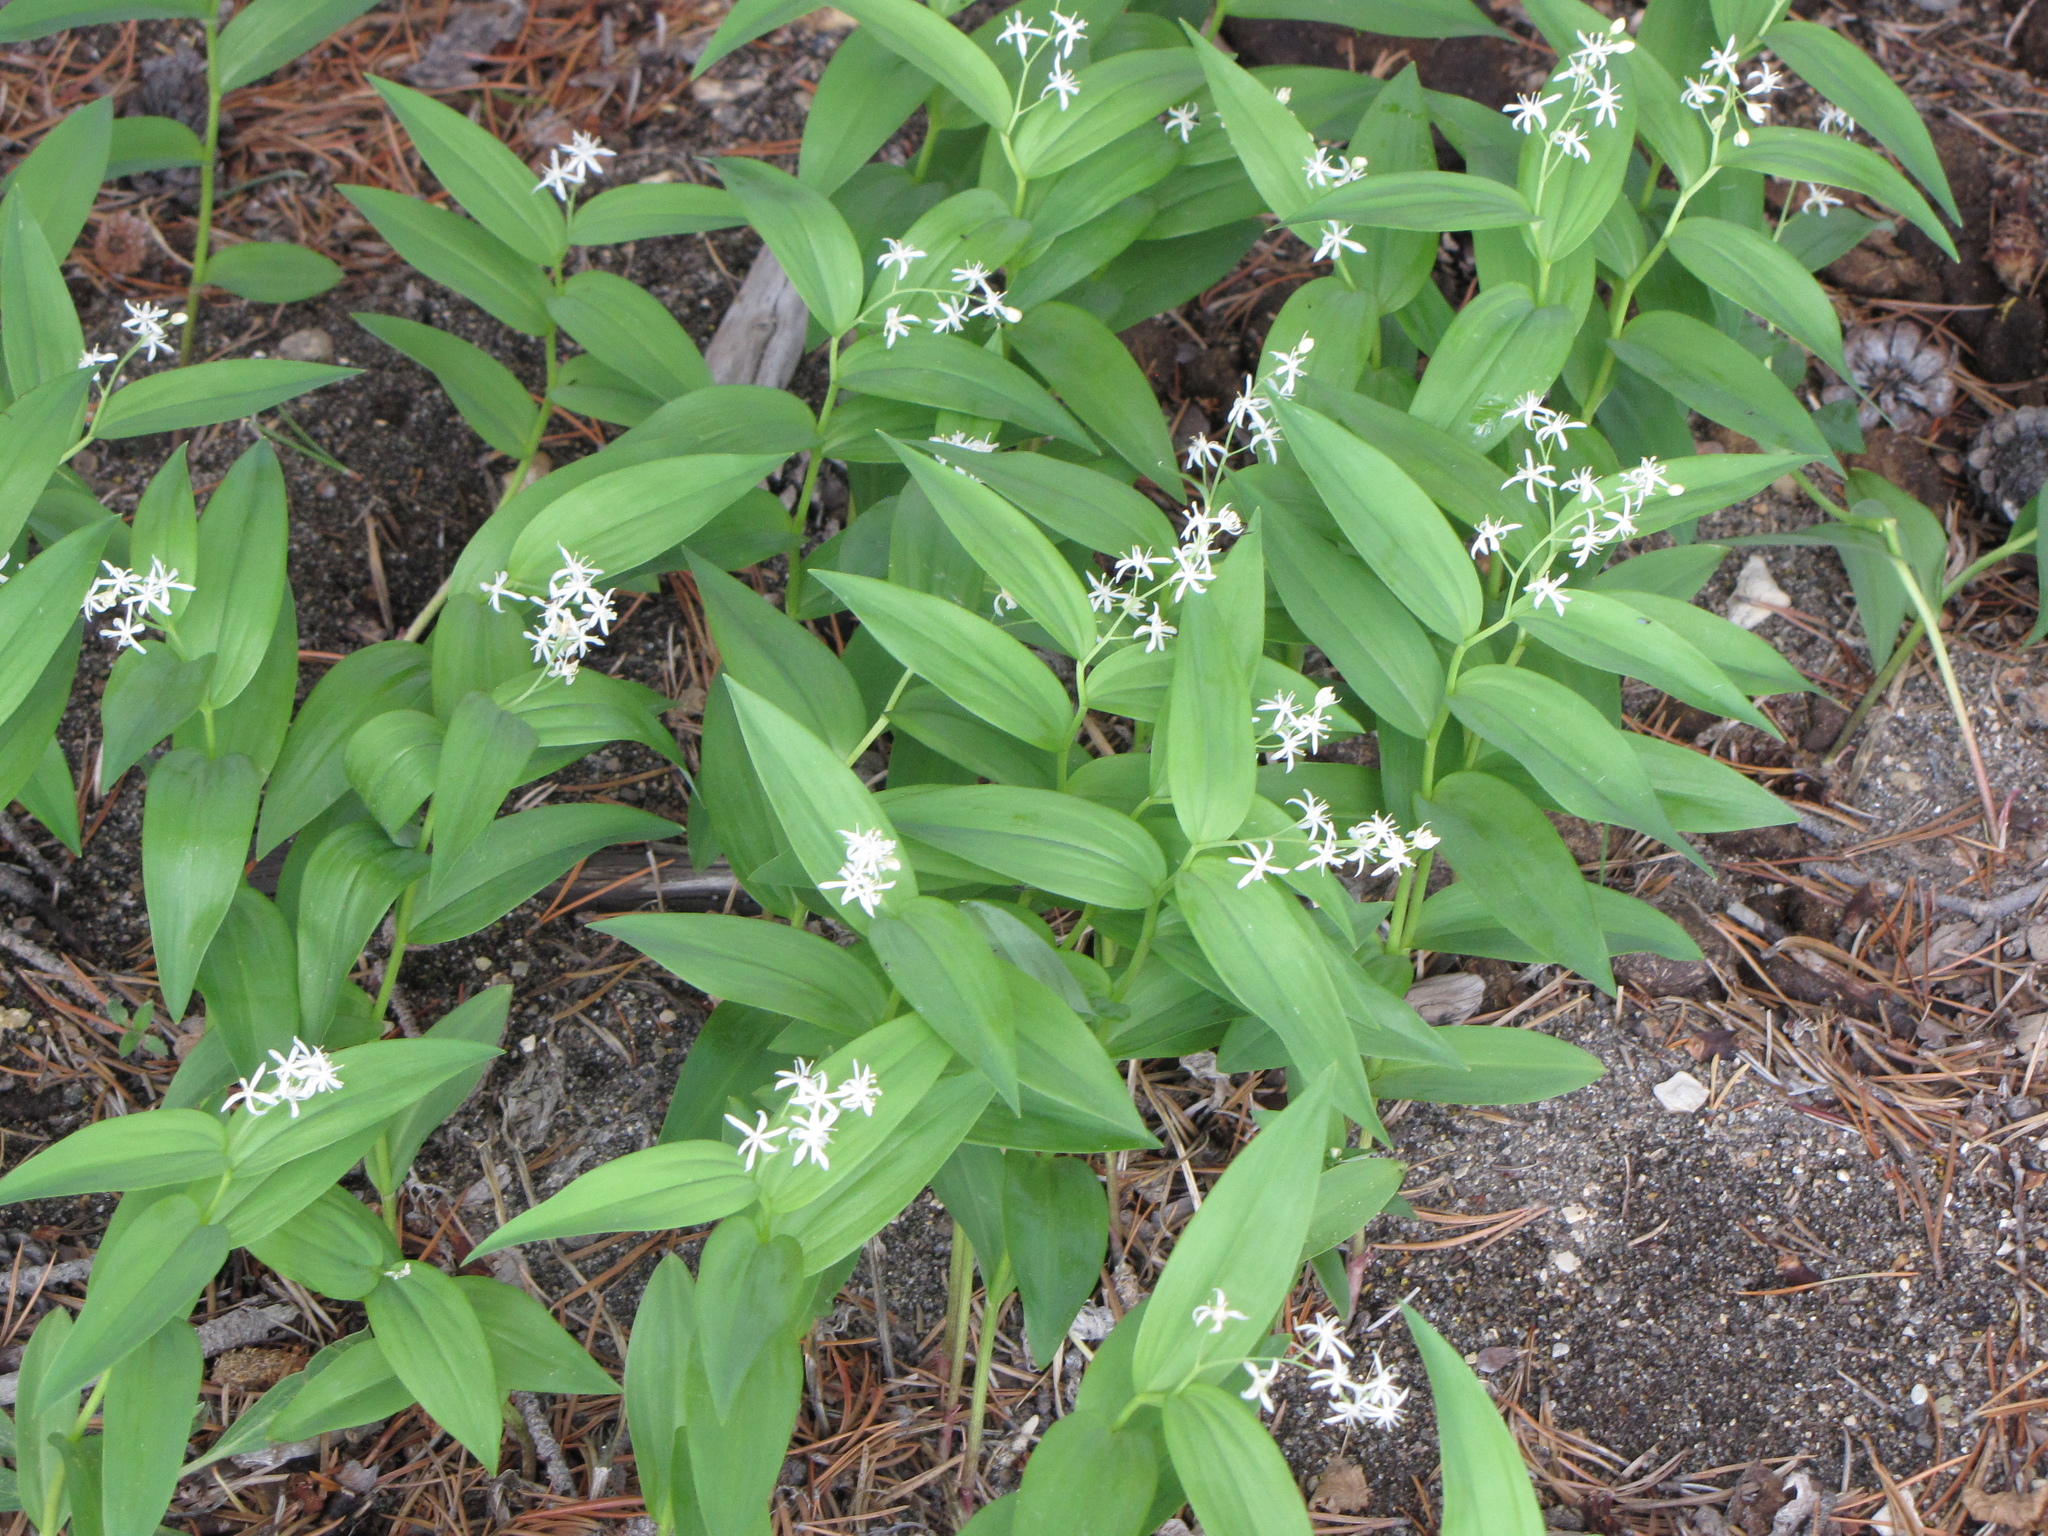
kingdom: Plantae
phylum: Tracheophyta
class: Liliopsida
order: Asparagales
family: Asparagaceae
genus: Maianthemum
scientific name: Maianthemum stellatum
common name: Little false solomon's seal
